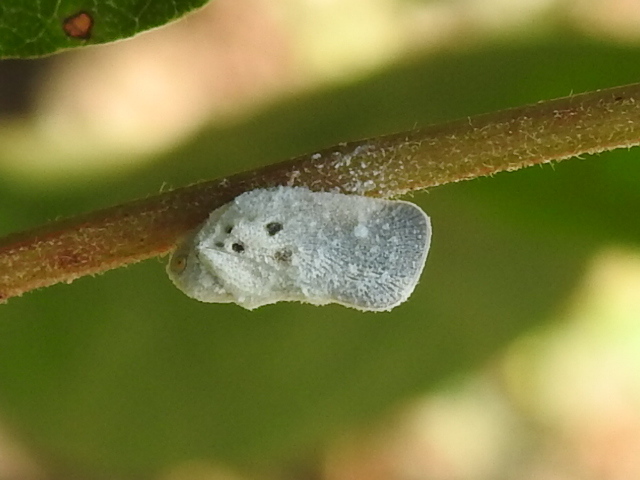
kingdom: Animalia
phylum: Arthropoda
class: Insecta
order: Hemiptera
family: Flatidae
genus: Metcalfa
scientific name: Metcalfa pruinosa
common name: Citrus flatid planthopper
